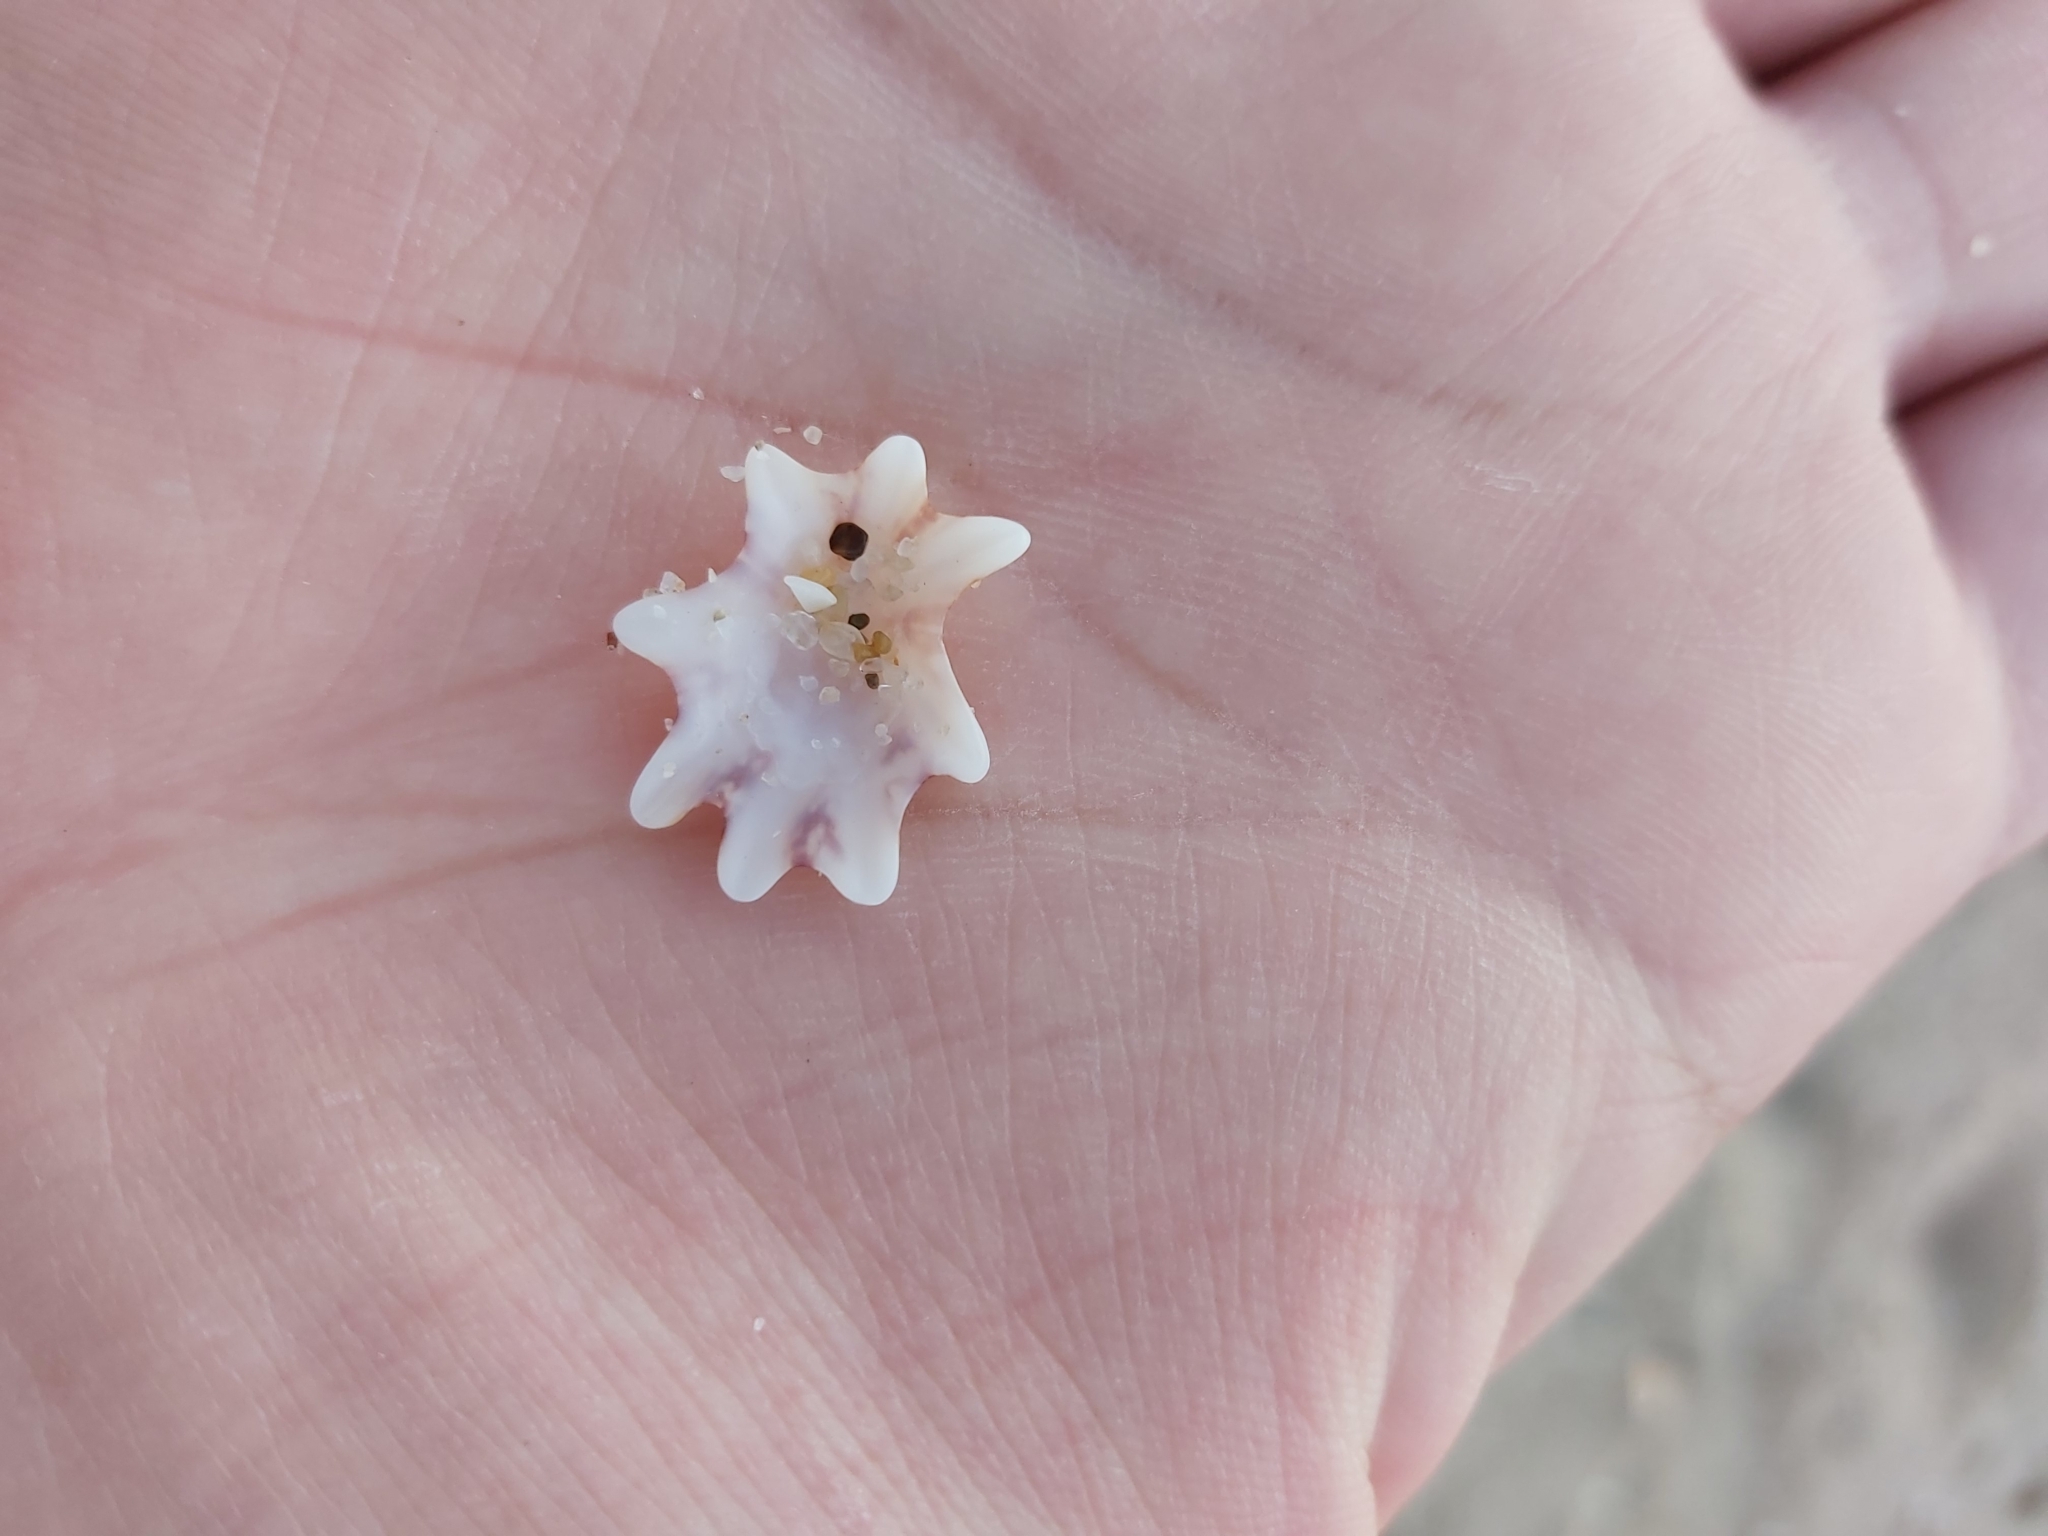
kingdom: Animalia
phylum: Mollusca
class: Gastropoda
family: Patellidae
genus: Scutellastra
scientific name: Scutellastra chapmani
